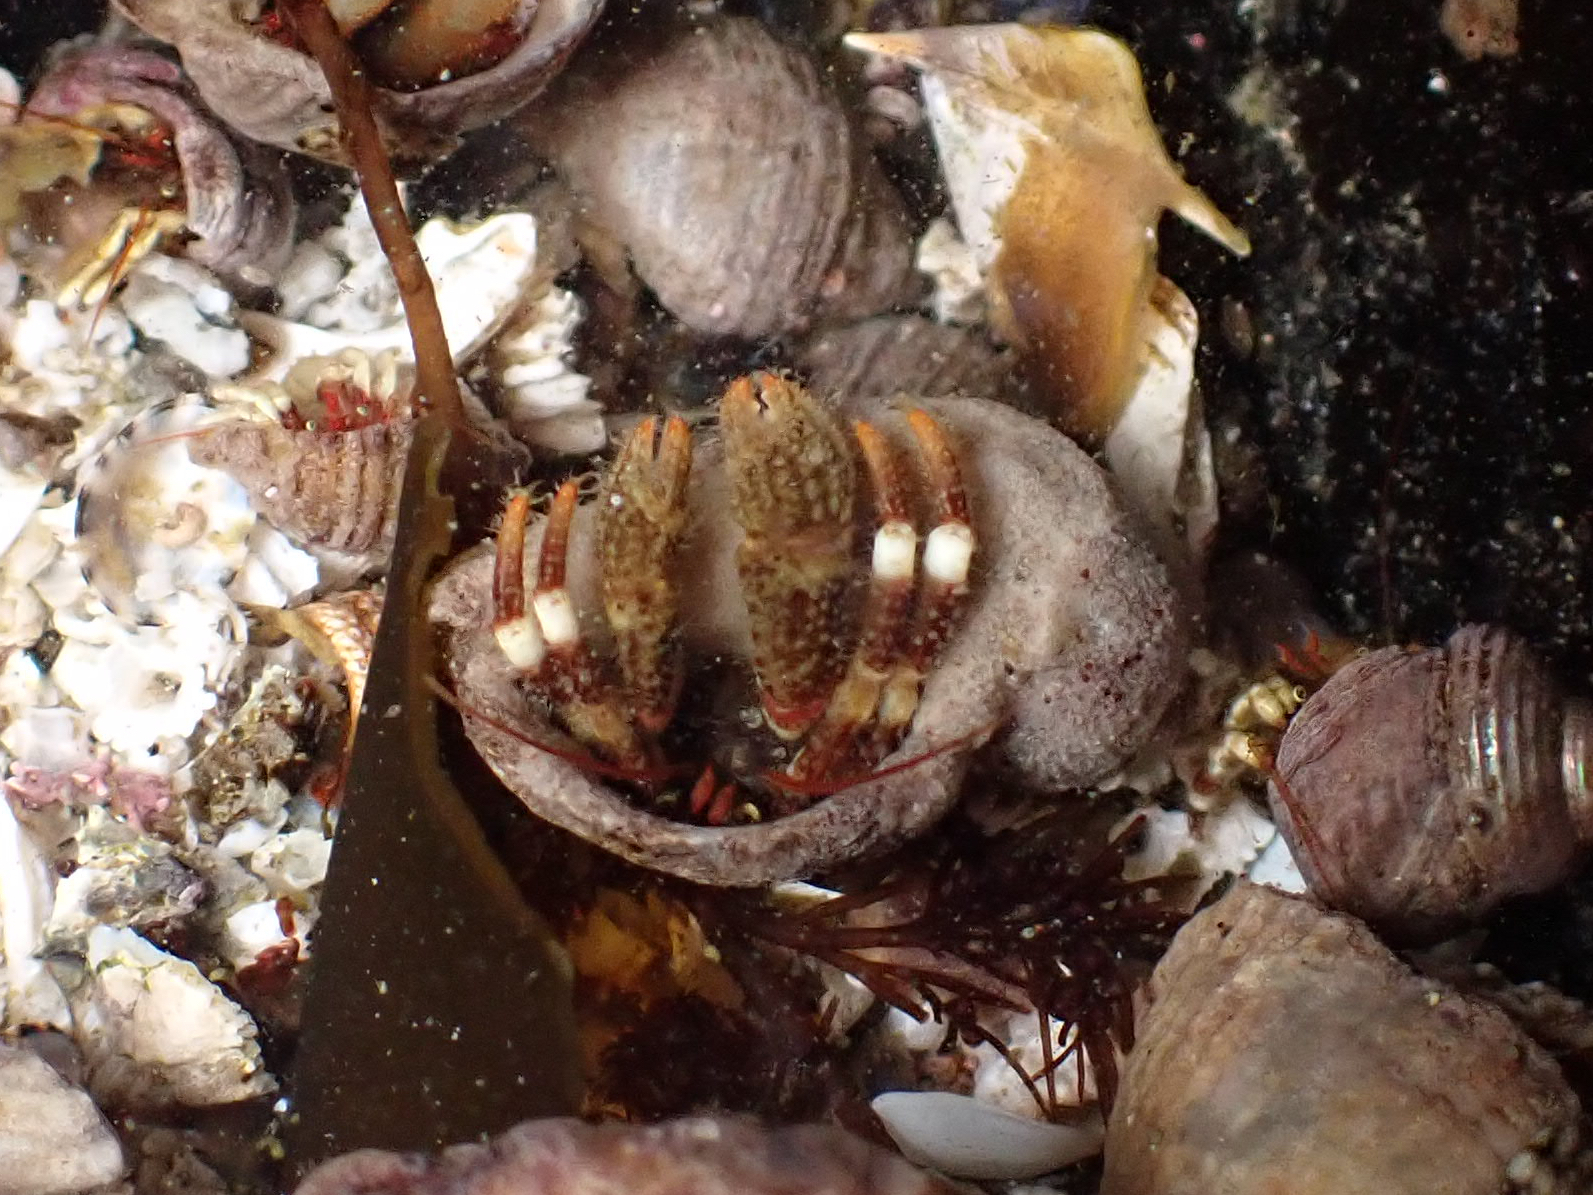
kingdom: Animalia
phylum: Arthropoda
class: Malacostraca
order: Decapoda
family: Paguridae
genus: Pagurus
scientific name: Pagurus caurinus
